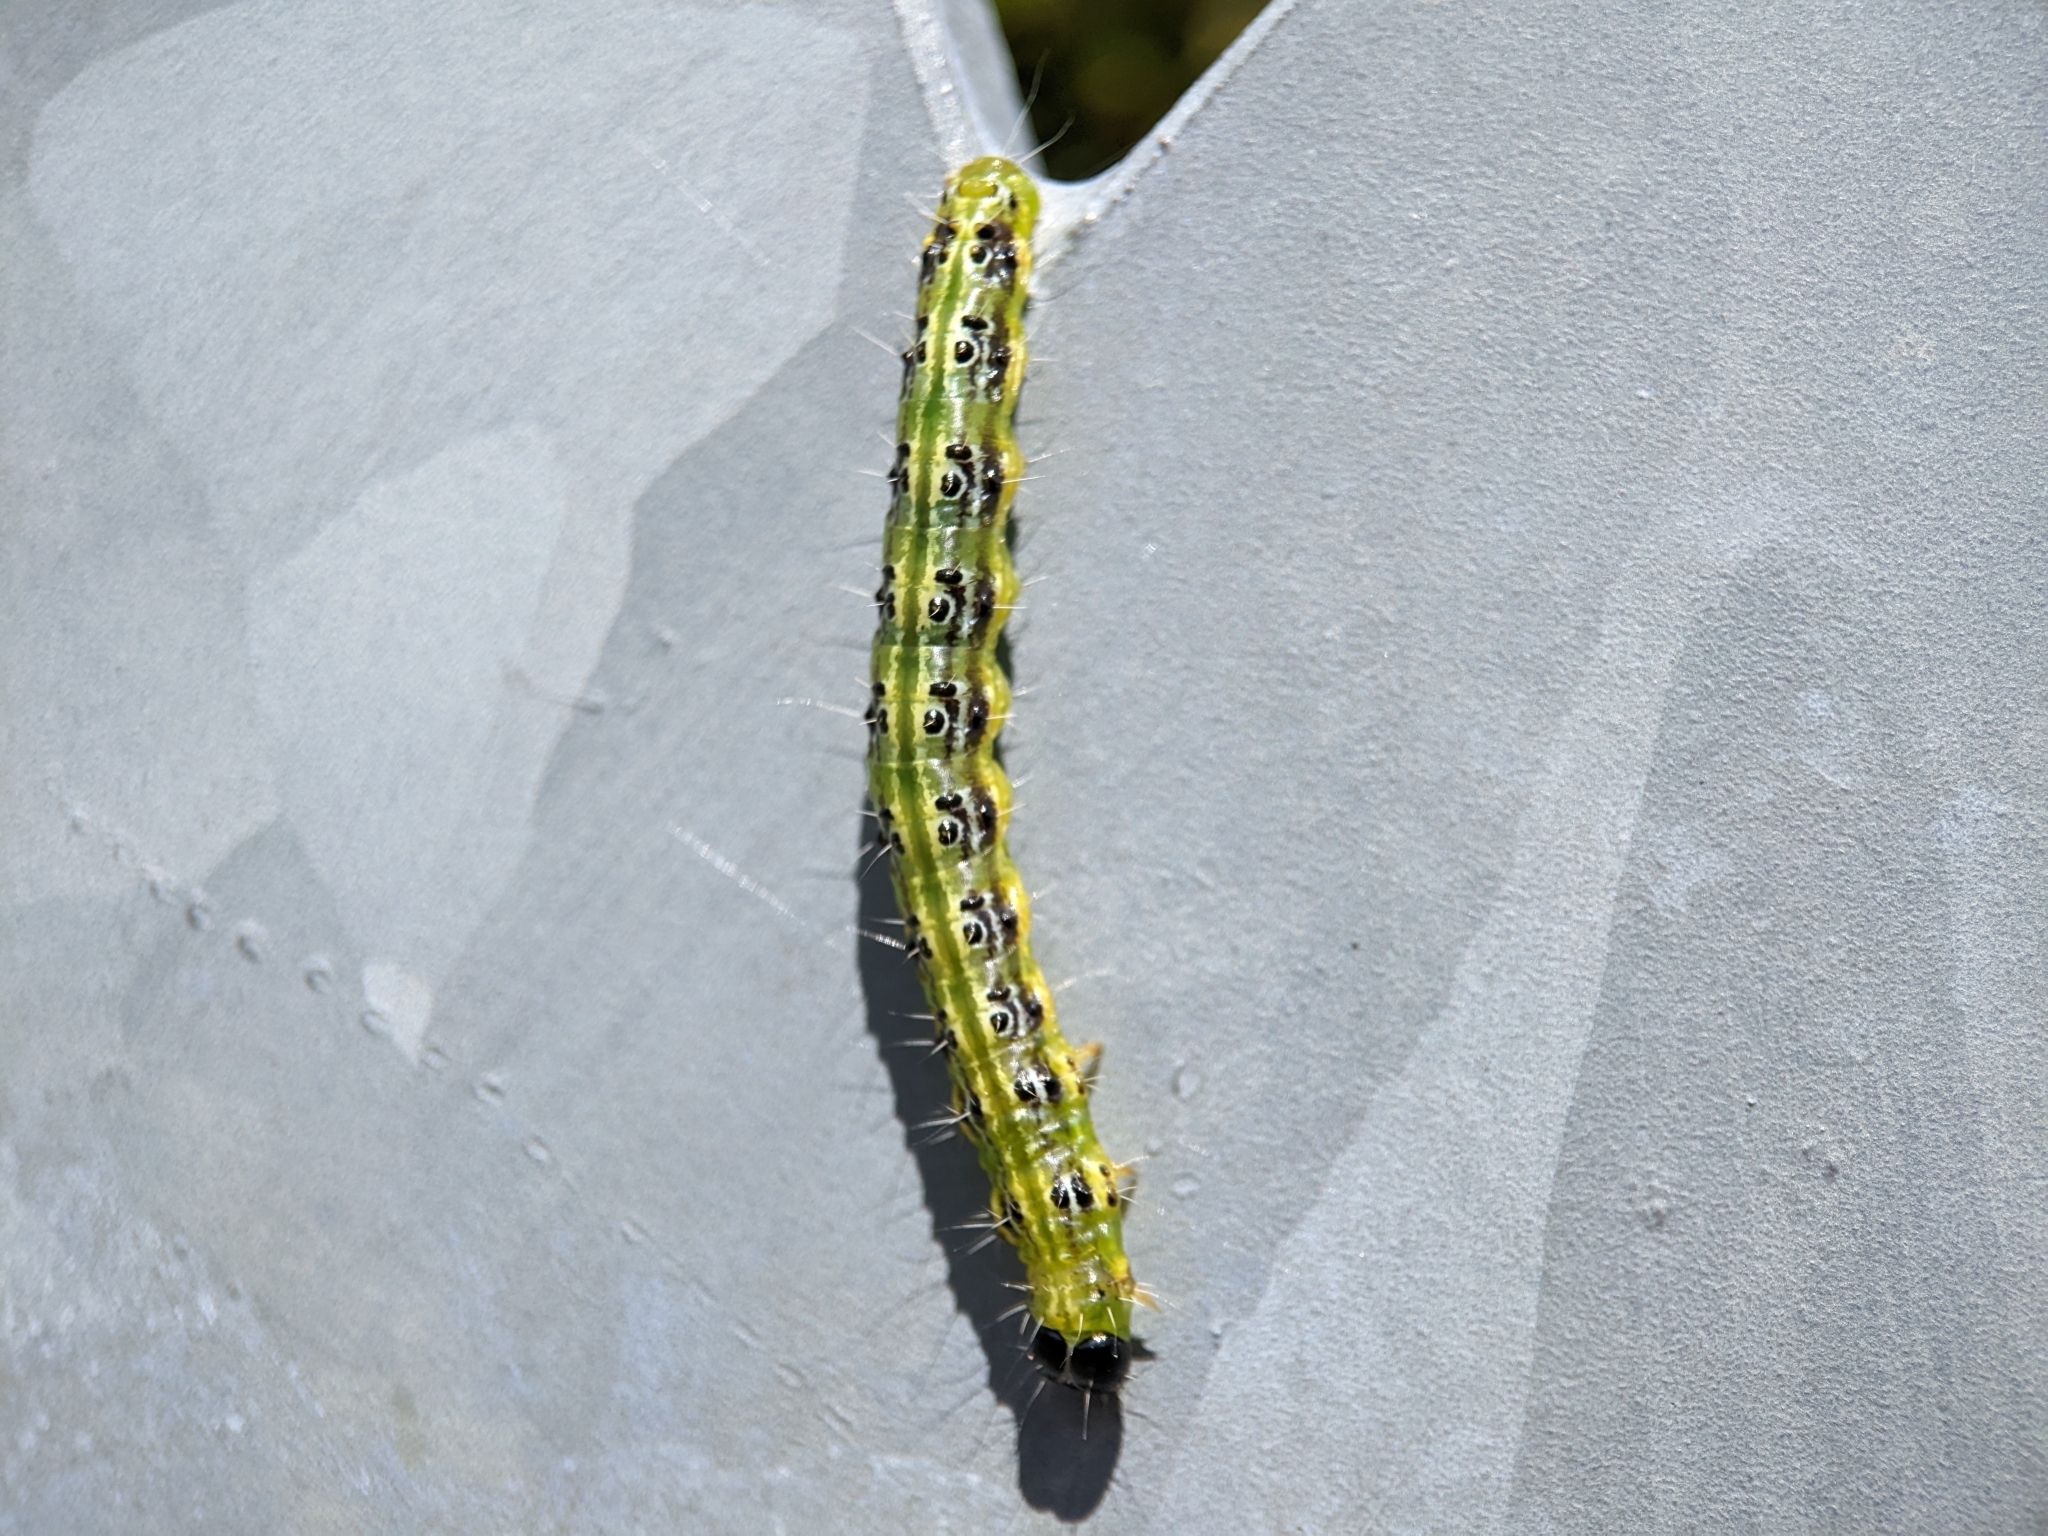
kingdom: Animalia
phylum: Arthropoda
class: Insecta
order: Lepidoptera
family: Crambidae
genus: Cydalima
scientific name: Cydalima perspectalis
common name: Box tree moth
